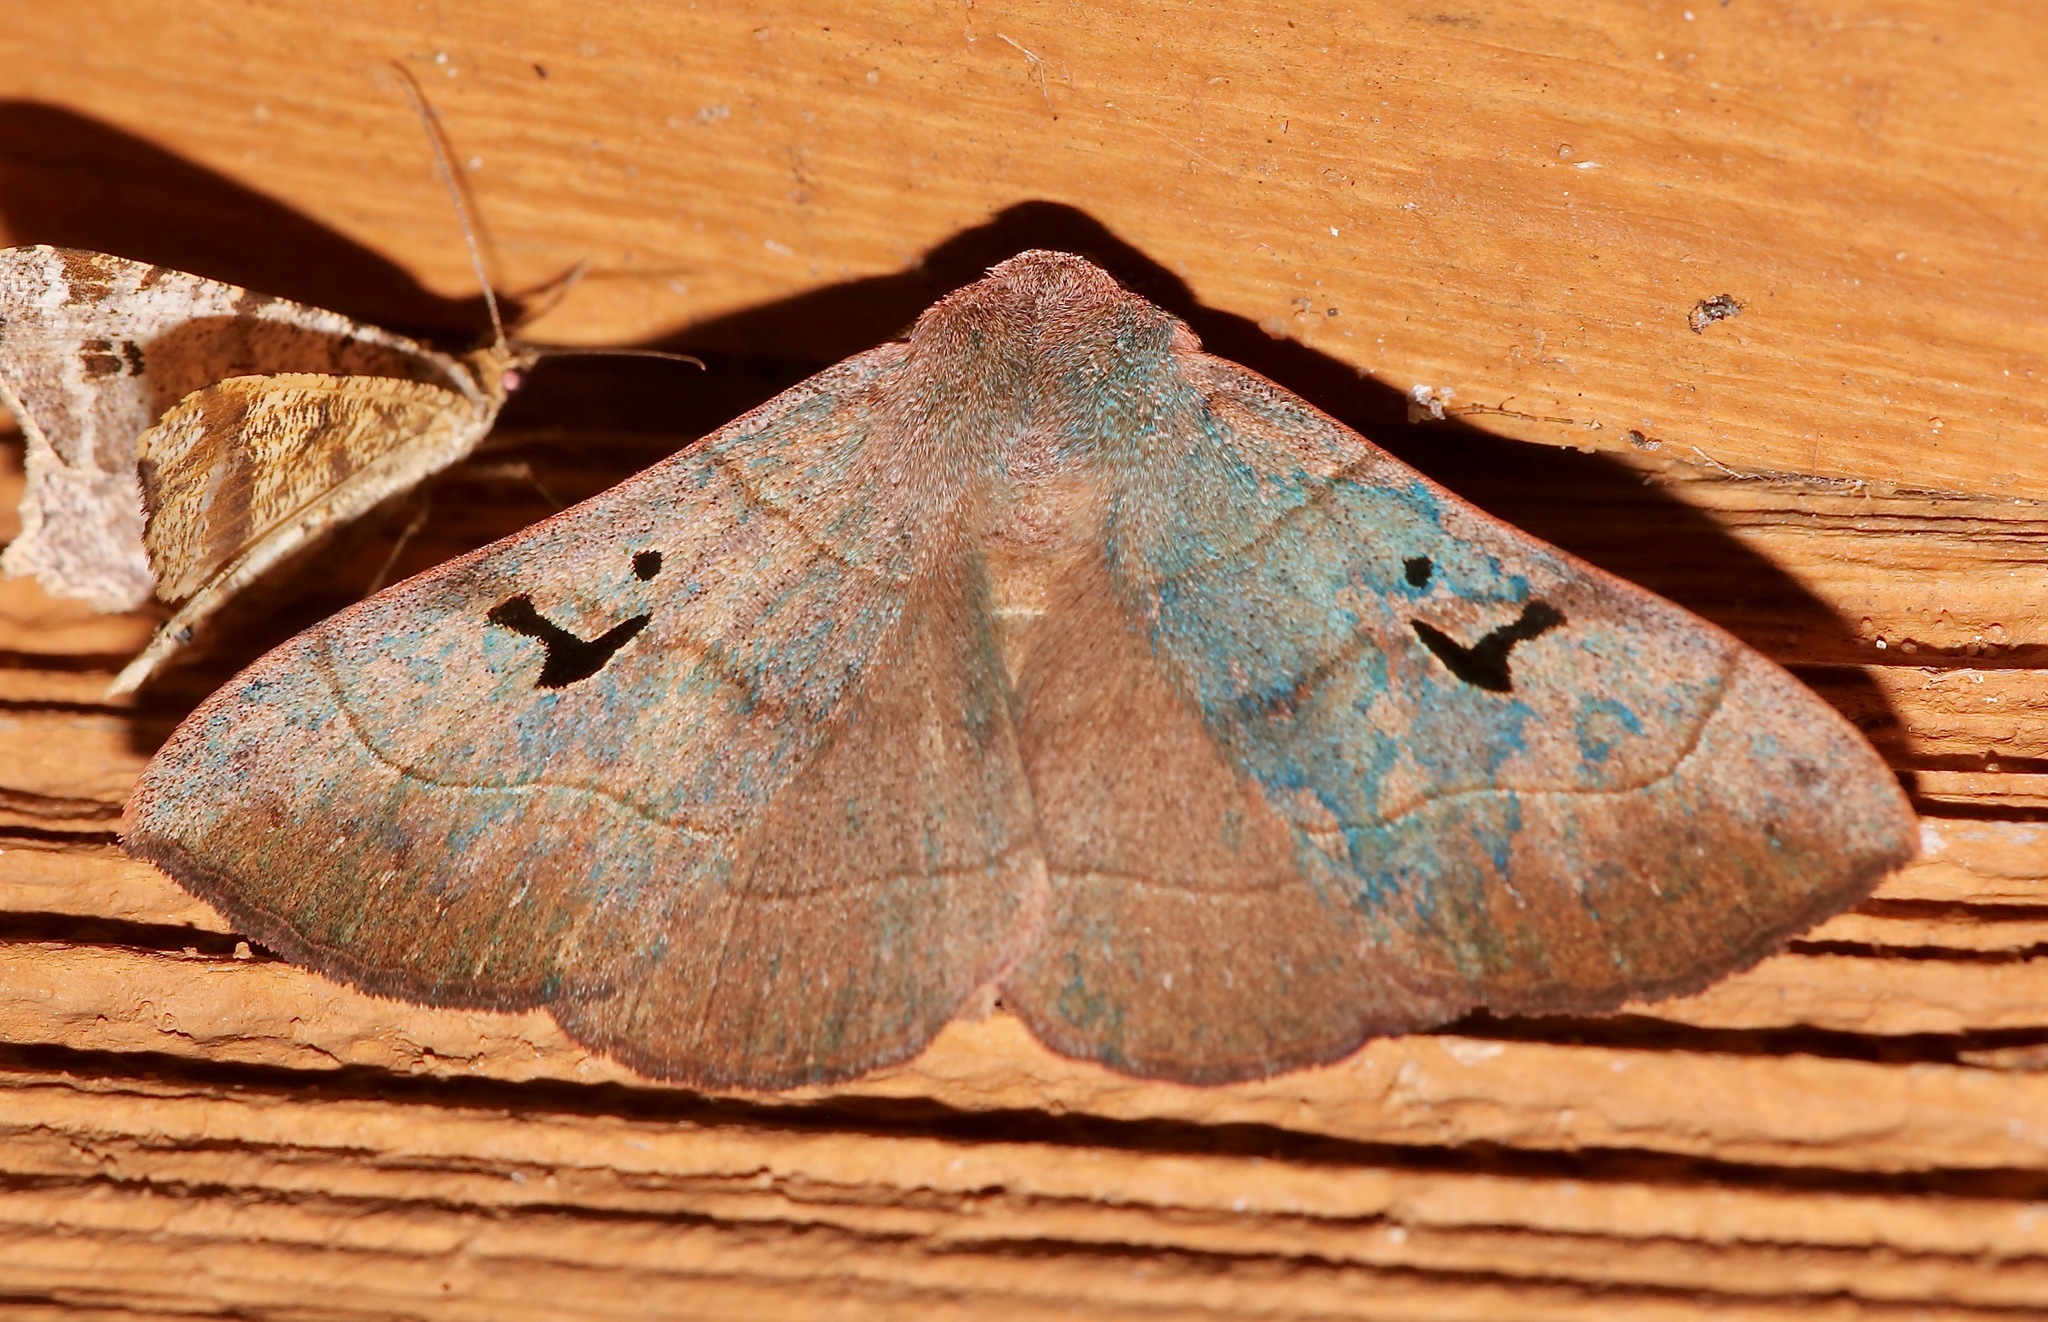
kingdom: Animalia
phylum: Arthropoda
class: Insecta
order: Lepidoptera
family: Erebidae
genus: Panopoda
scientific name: Panopoda carneicosta
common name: Brown panopoda moth
